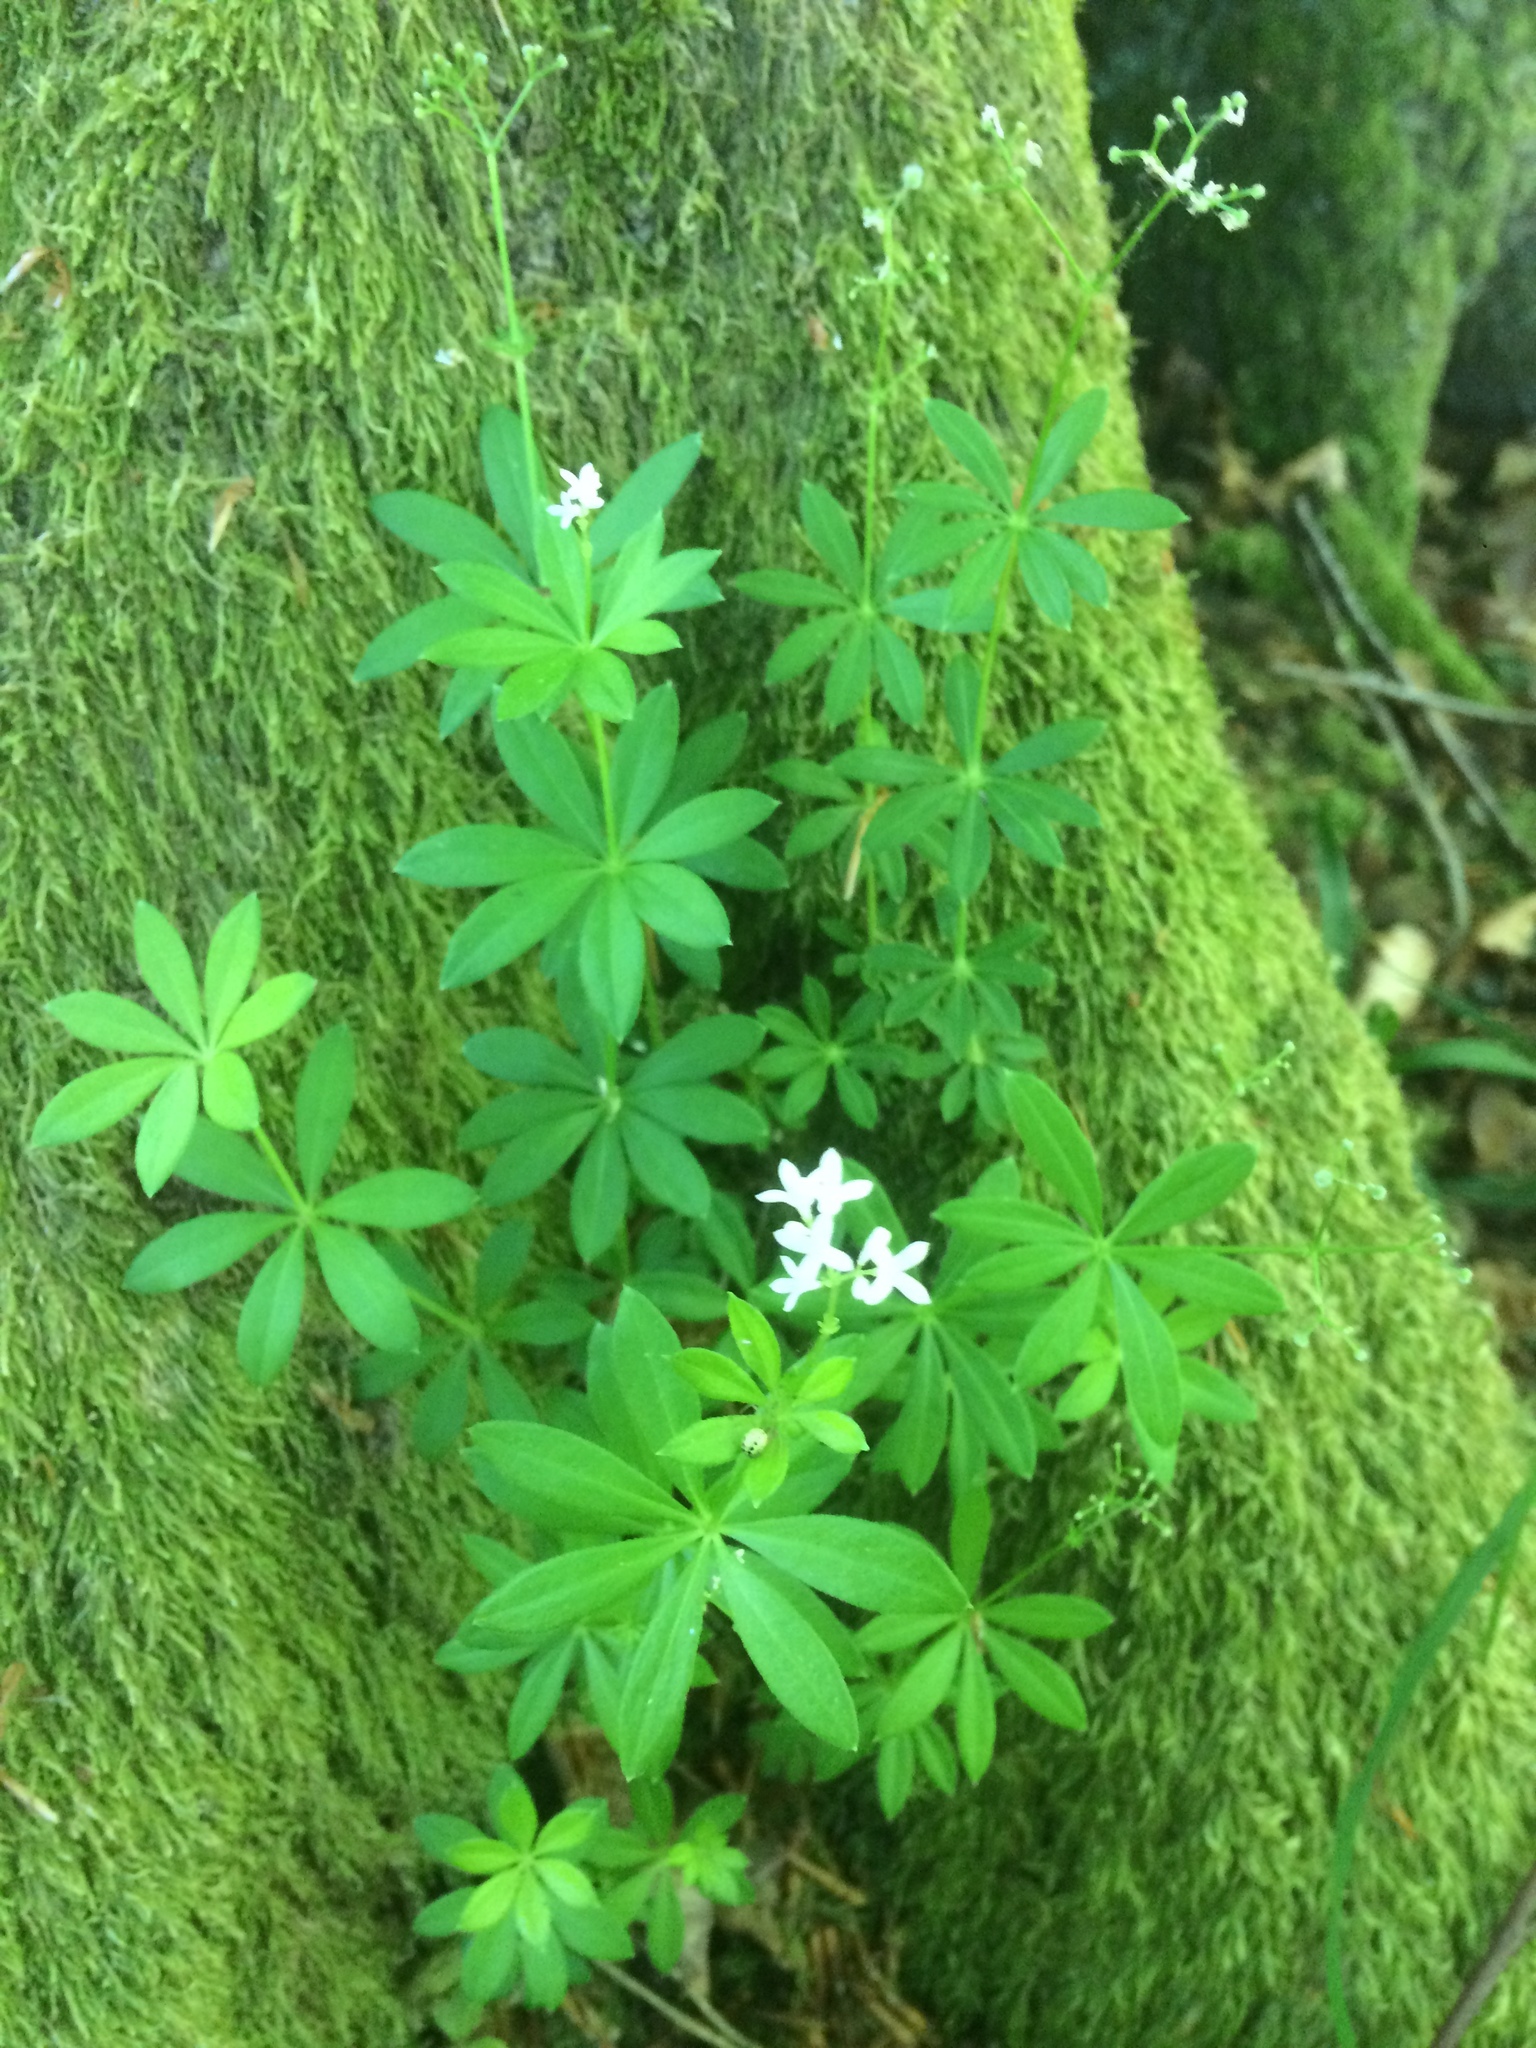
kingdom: Plantae
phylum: Tracheophyta
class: Magnoliopsida
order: Gentianales
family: Rubiaceae
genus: Galium
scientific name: Galium odoratum
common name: Sweet woodruff
